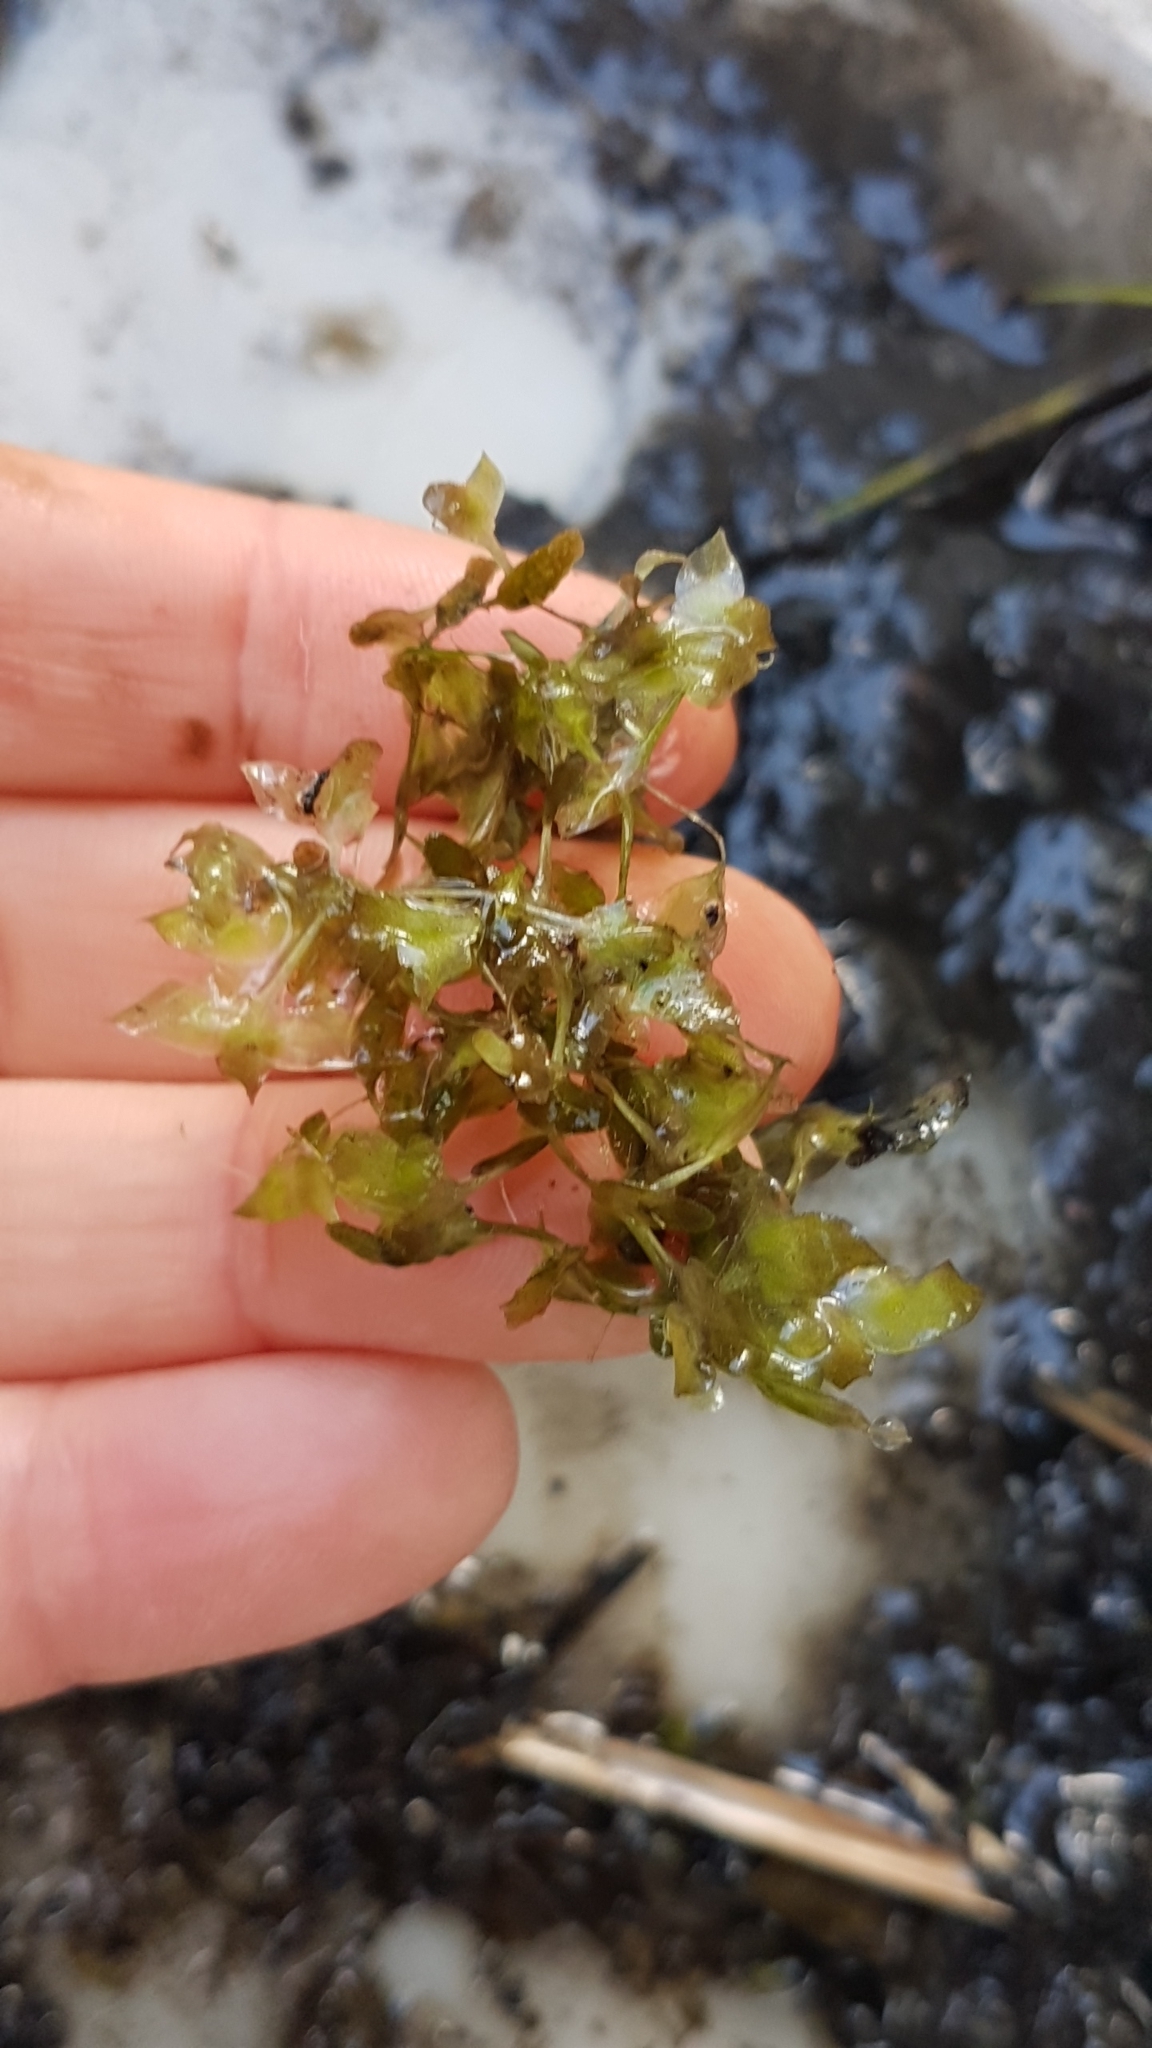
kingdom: Plantae
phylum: Tracheophyta
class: Liliopsida
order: Alismatales
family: Araceae
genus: Lemna
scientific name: Lemna trisulca
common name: Ivy-leaved duckweed
